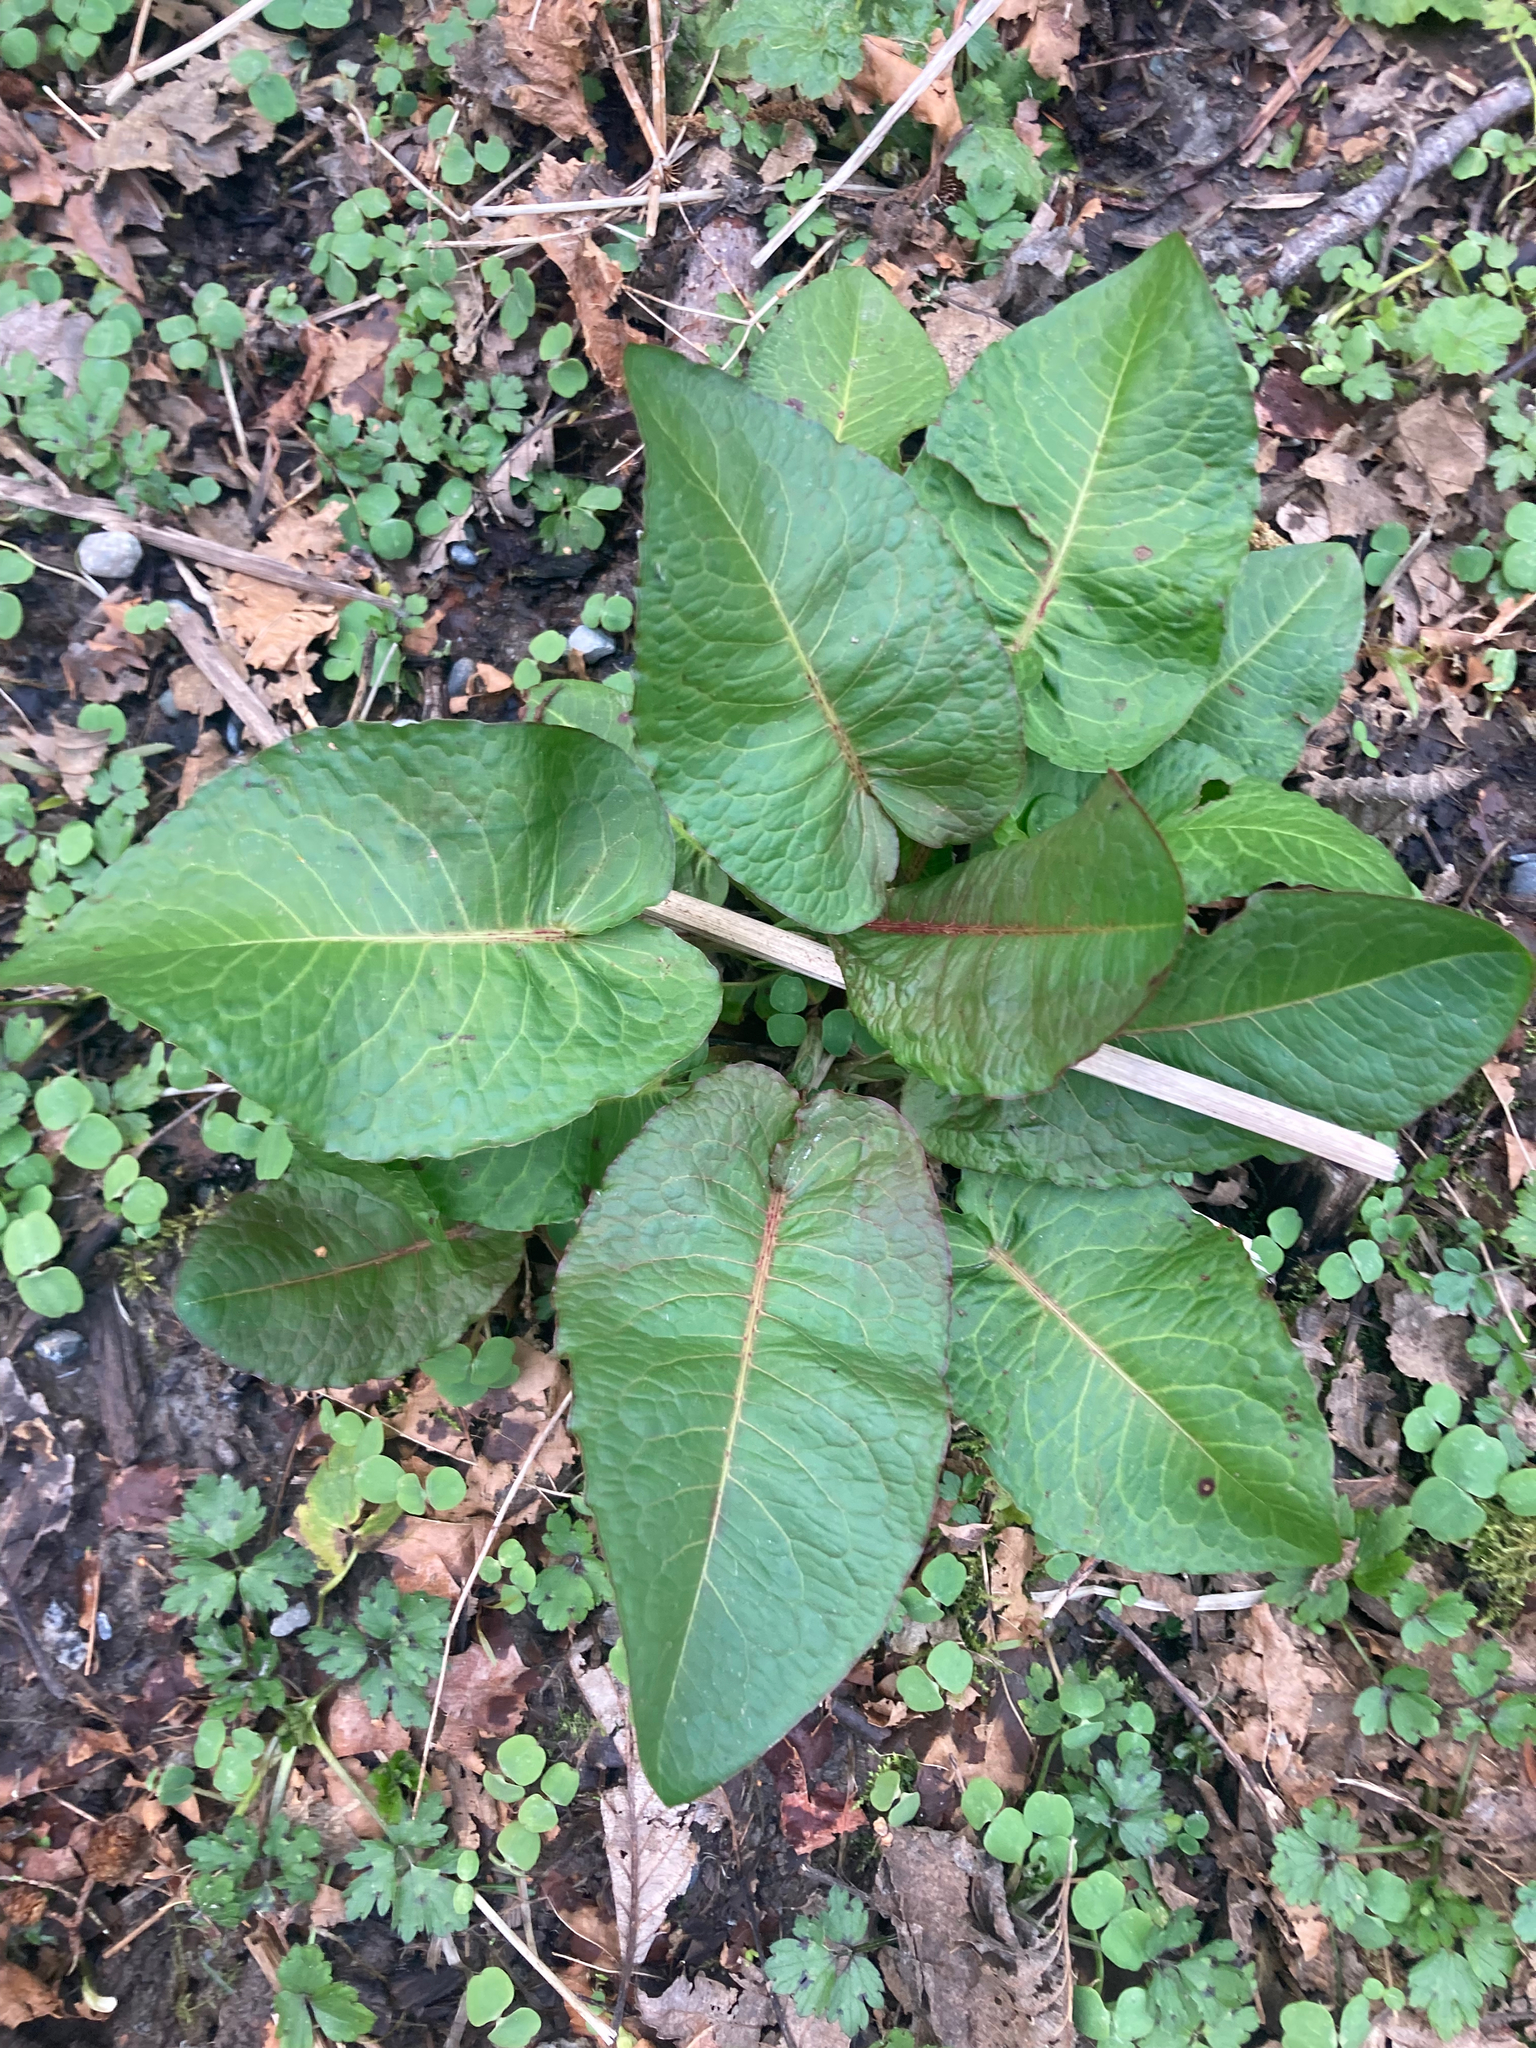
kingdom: Plantae
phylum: Tracheophyta
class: Magnoliopsida
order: Caryophyllales
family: Polygonaceae
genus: Rumex
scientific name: Rumex obtusifolius
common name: Bitter dock
